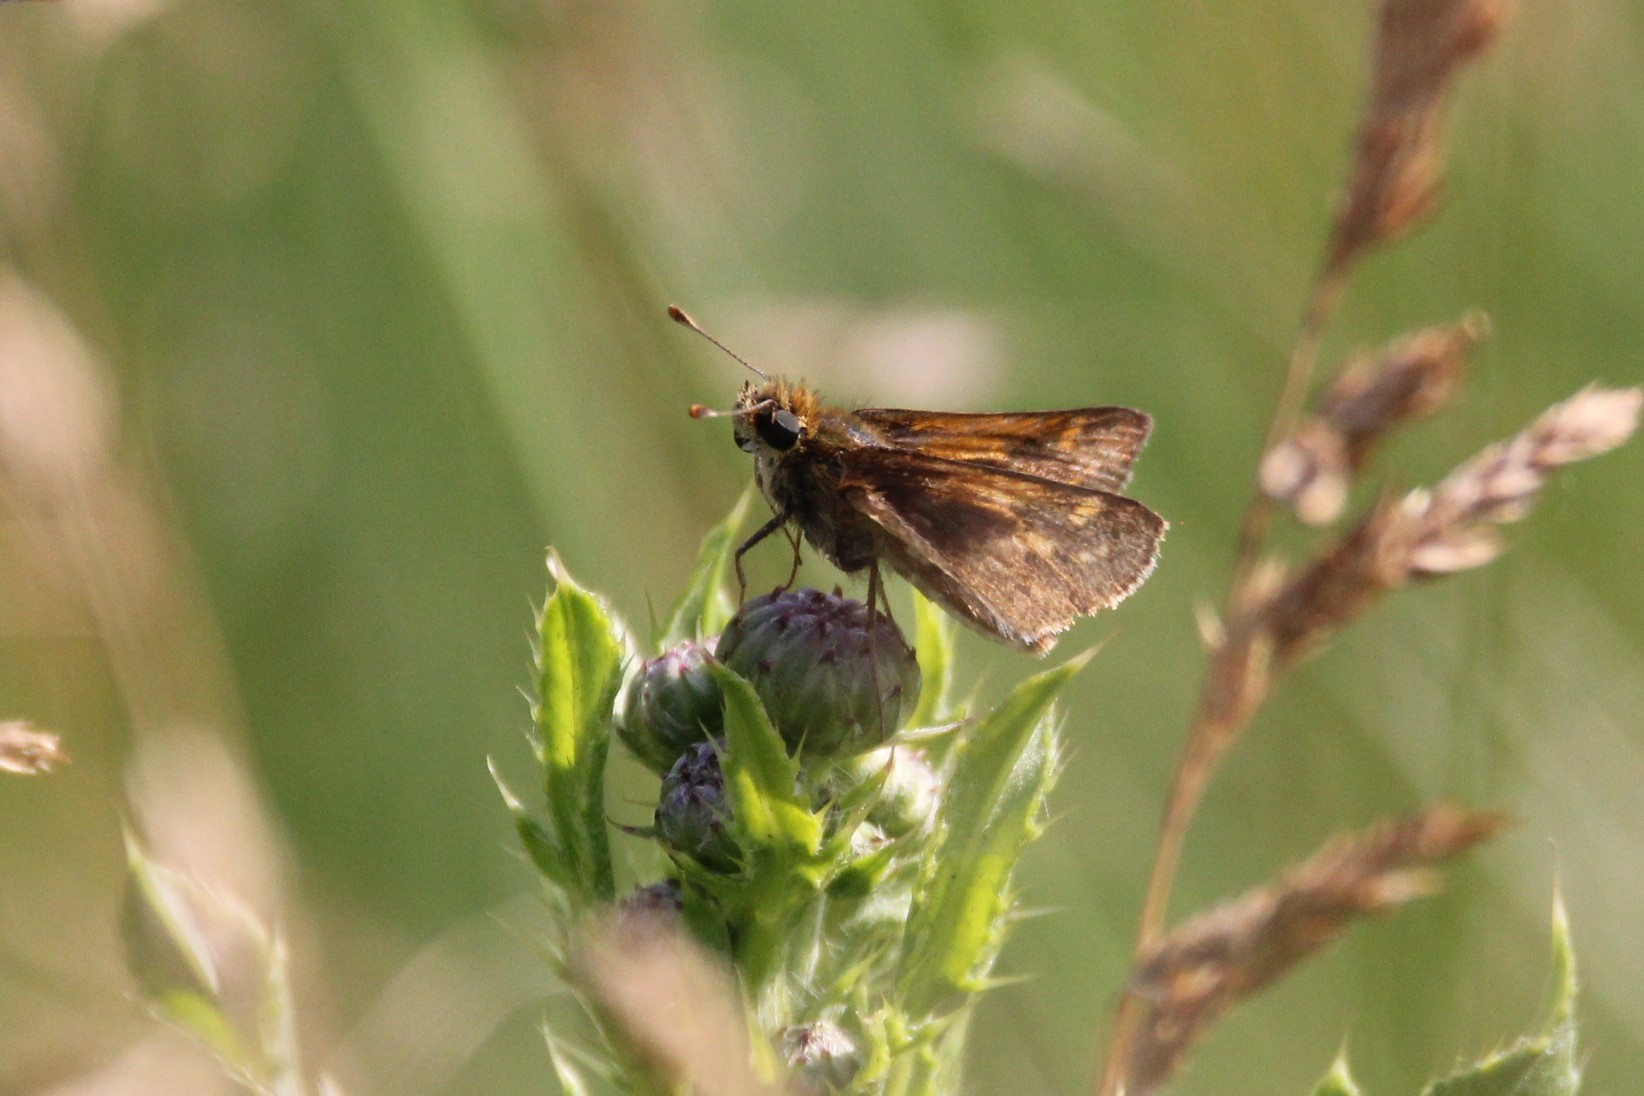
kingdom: Animalia
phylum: Arthropoda
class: Insecta
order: Lepidoptera
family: Hesperiidae
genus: Polites
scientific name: Polites coras
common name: Peck's skipper
